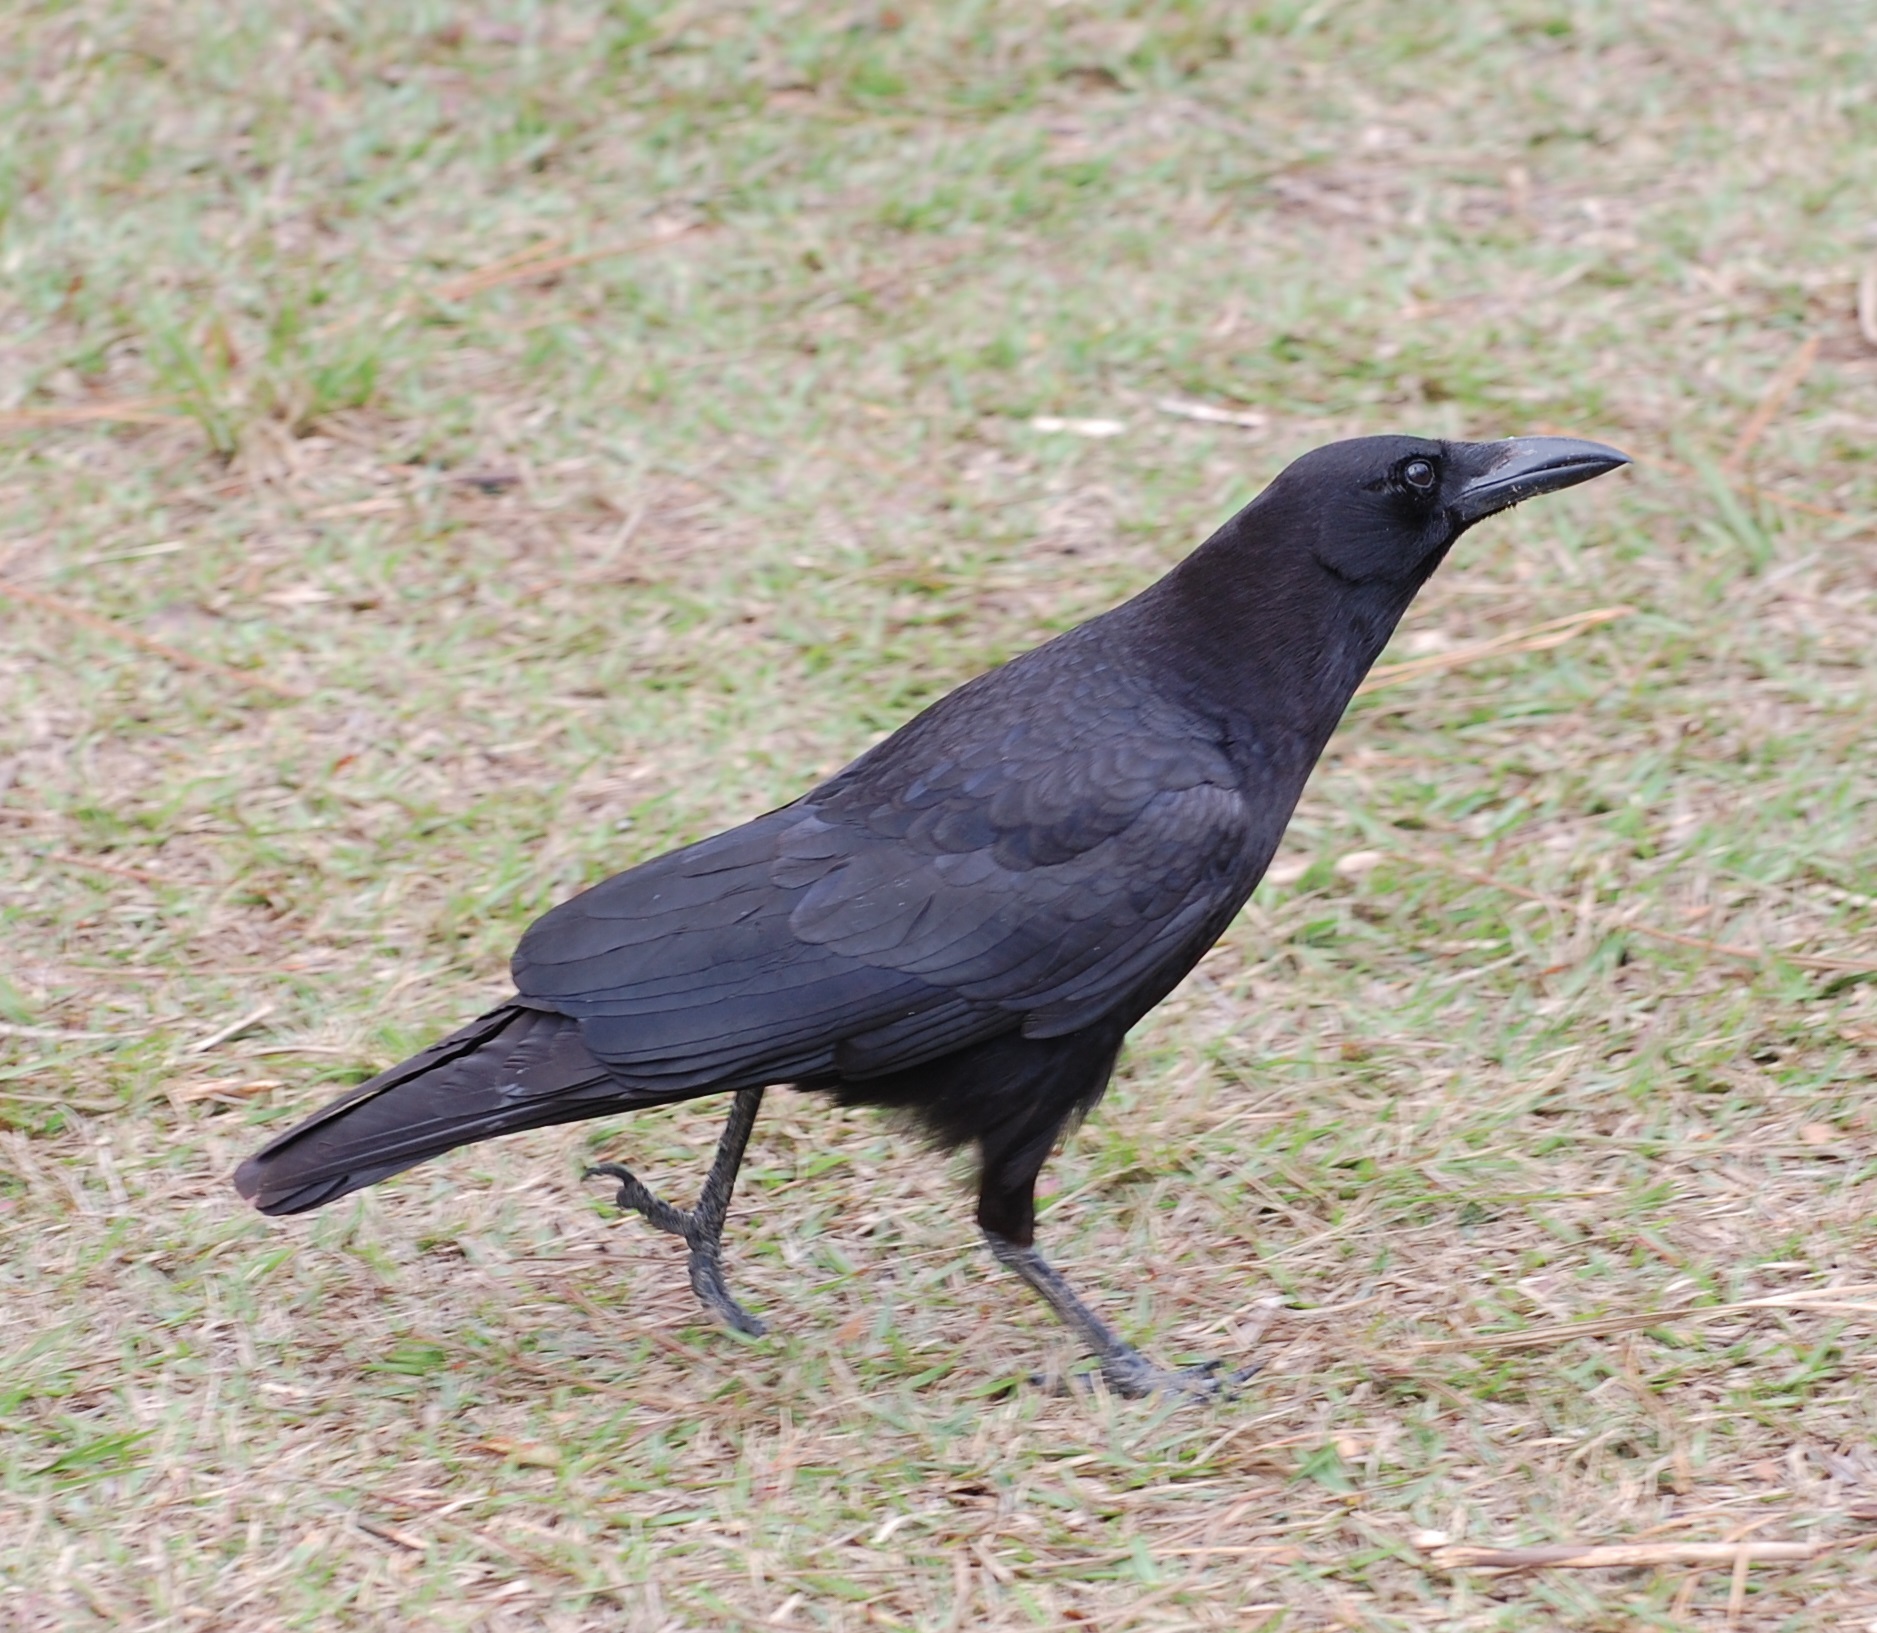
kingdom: Animalia
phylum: Chordata
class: Aves
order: Passeriformes
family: Corvidae
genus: Corvus
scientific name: Corvus brachyrhynchos
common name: American crow
